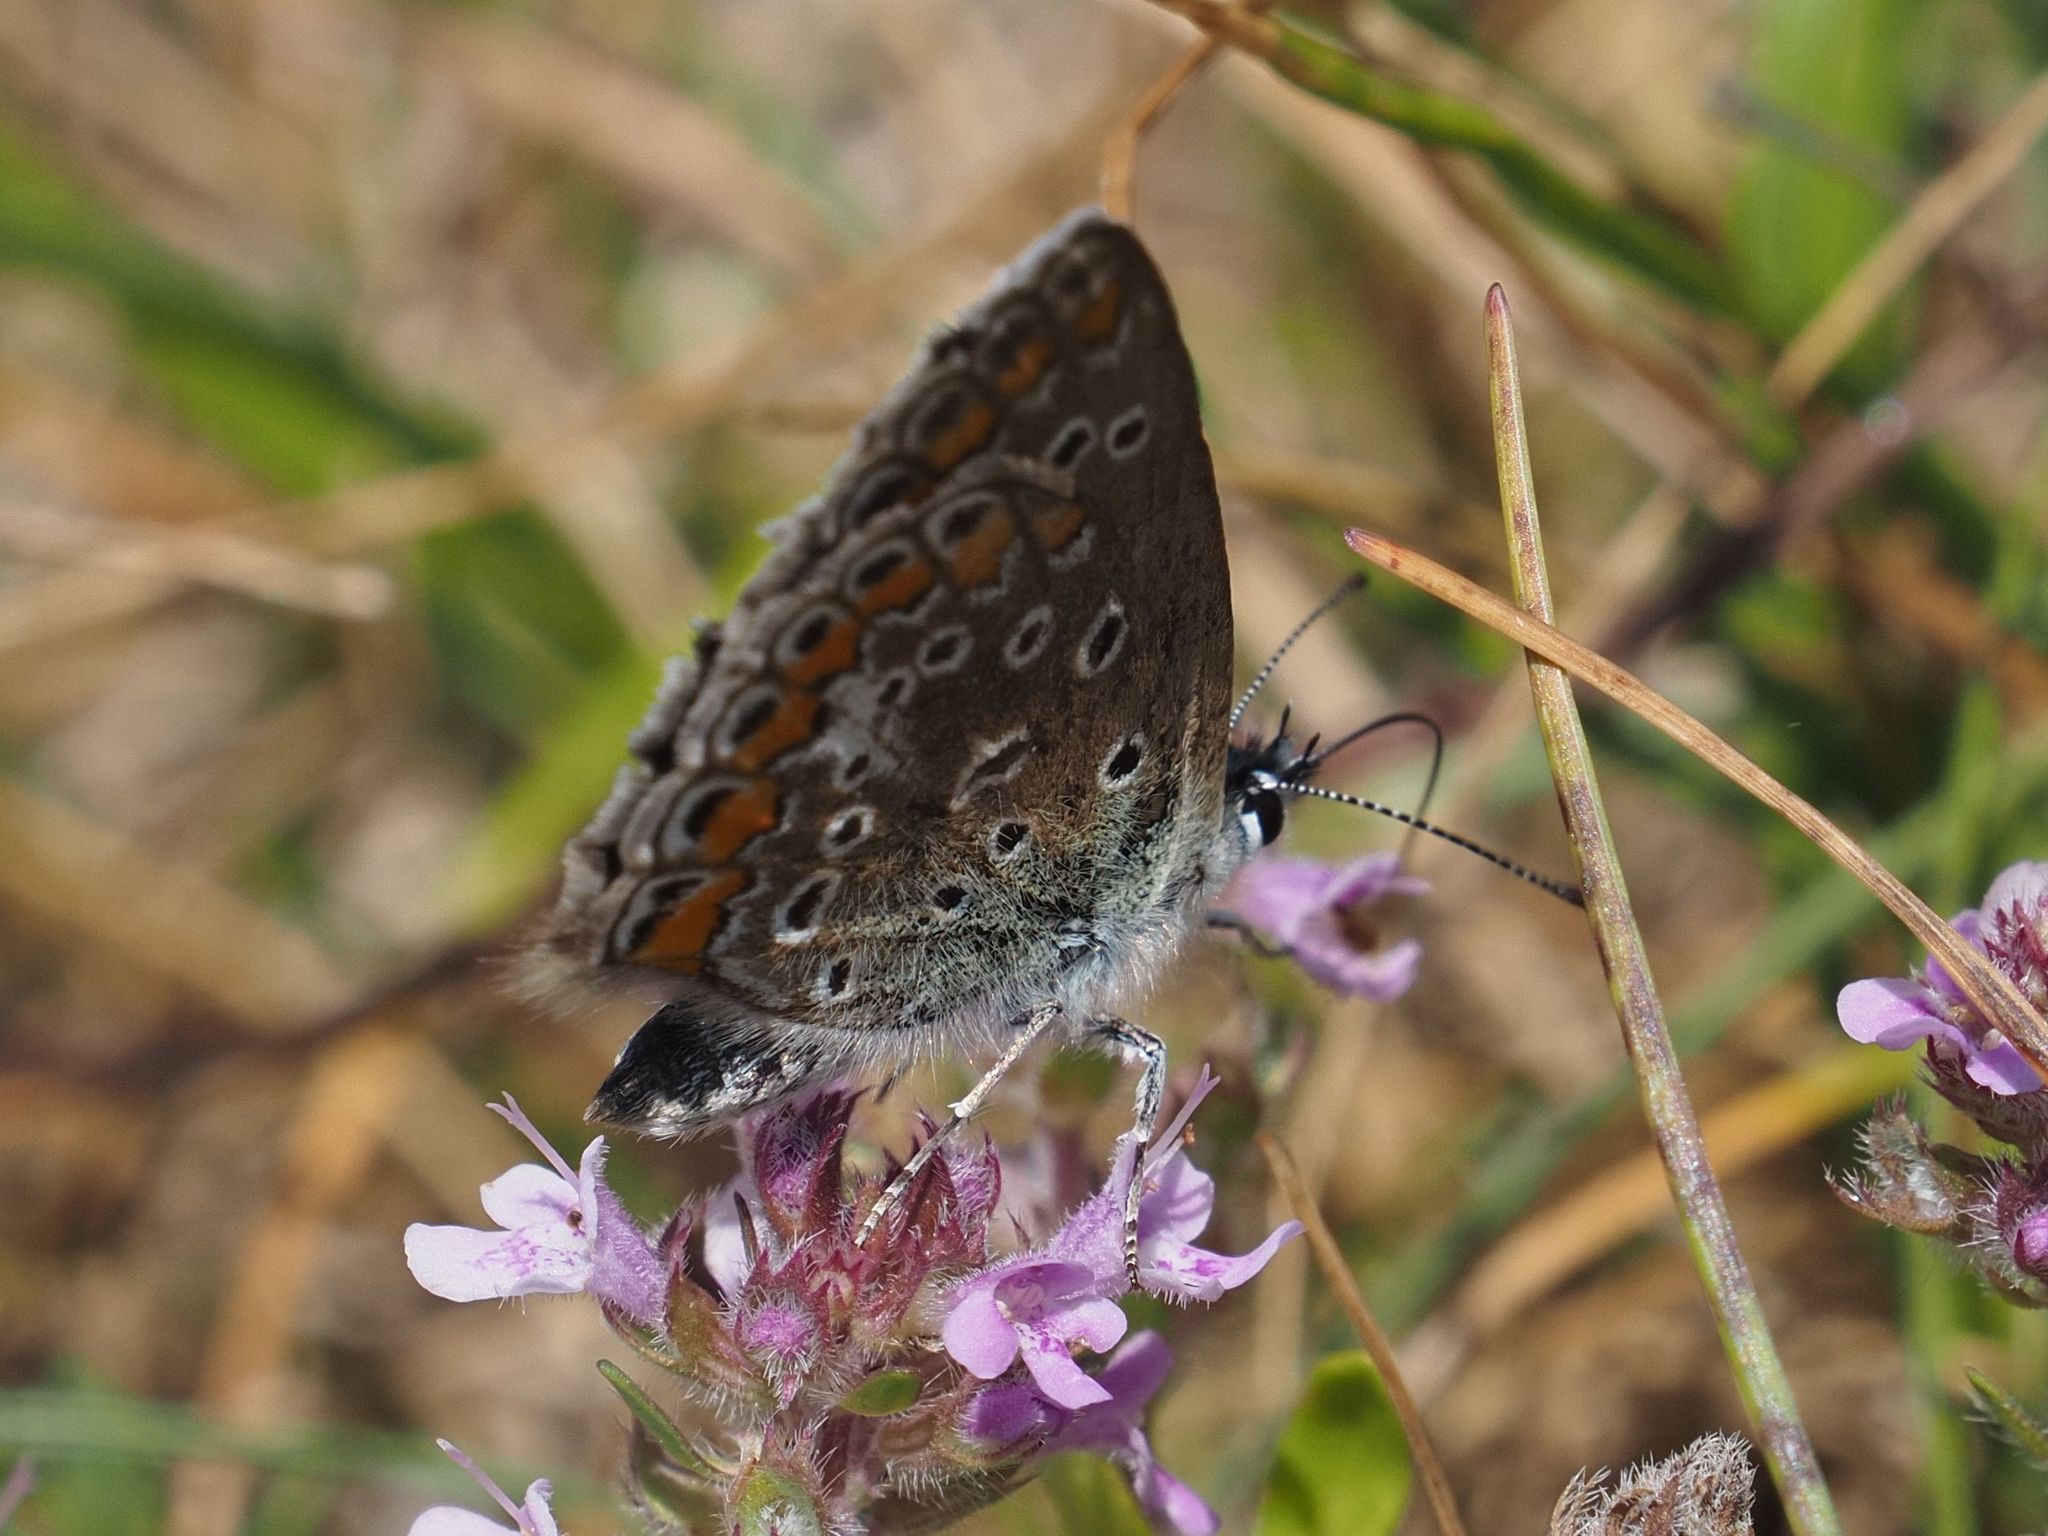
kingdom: Animalia
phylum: Arthropoda
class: Insecta
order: Lepidoptera
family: Lycaenidae
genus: Lysandra
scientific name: Lysandra bellargus
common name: Adonis blue
